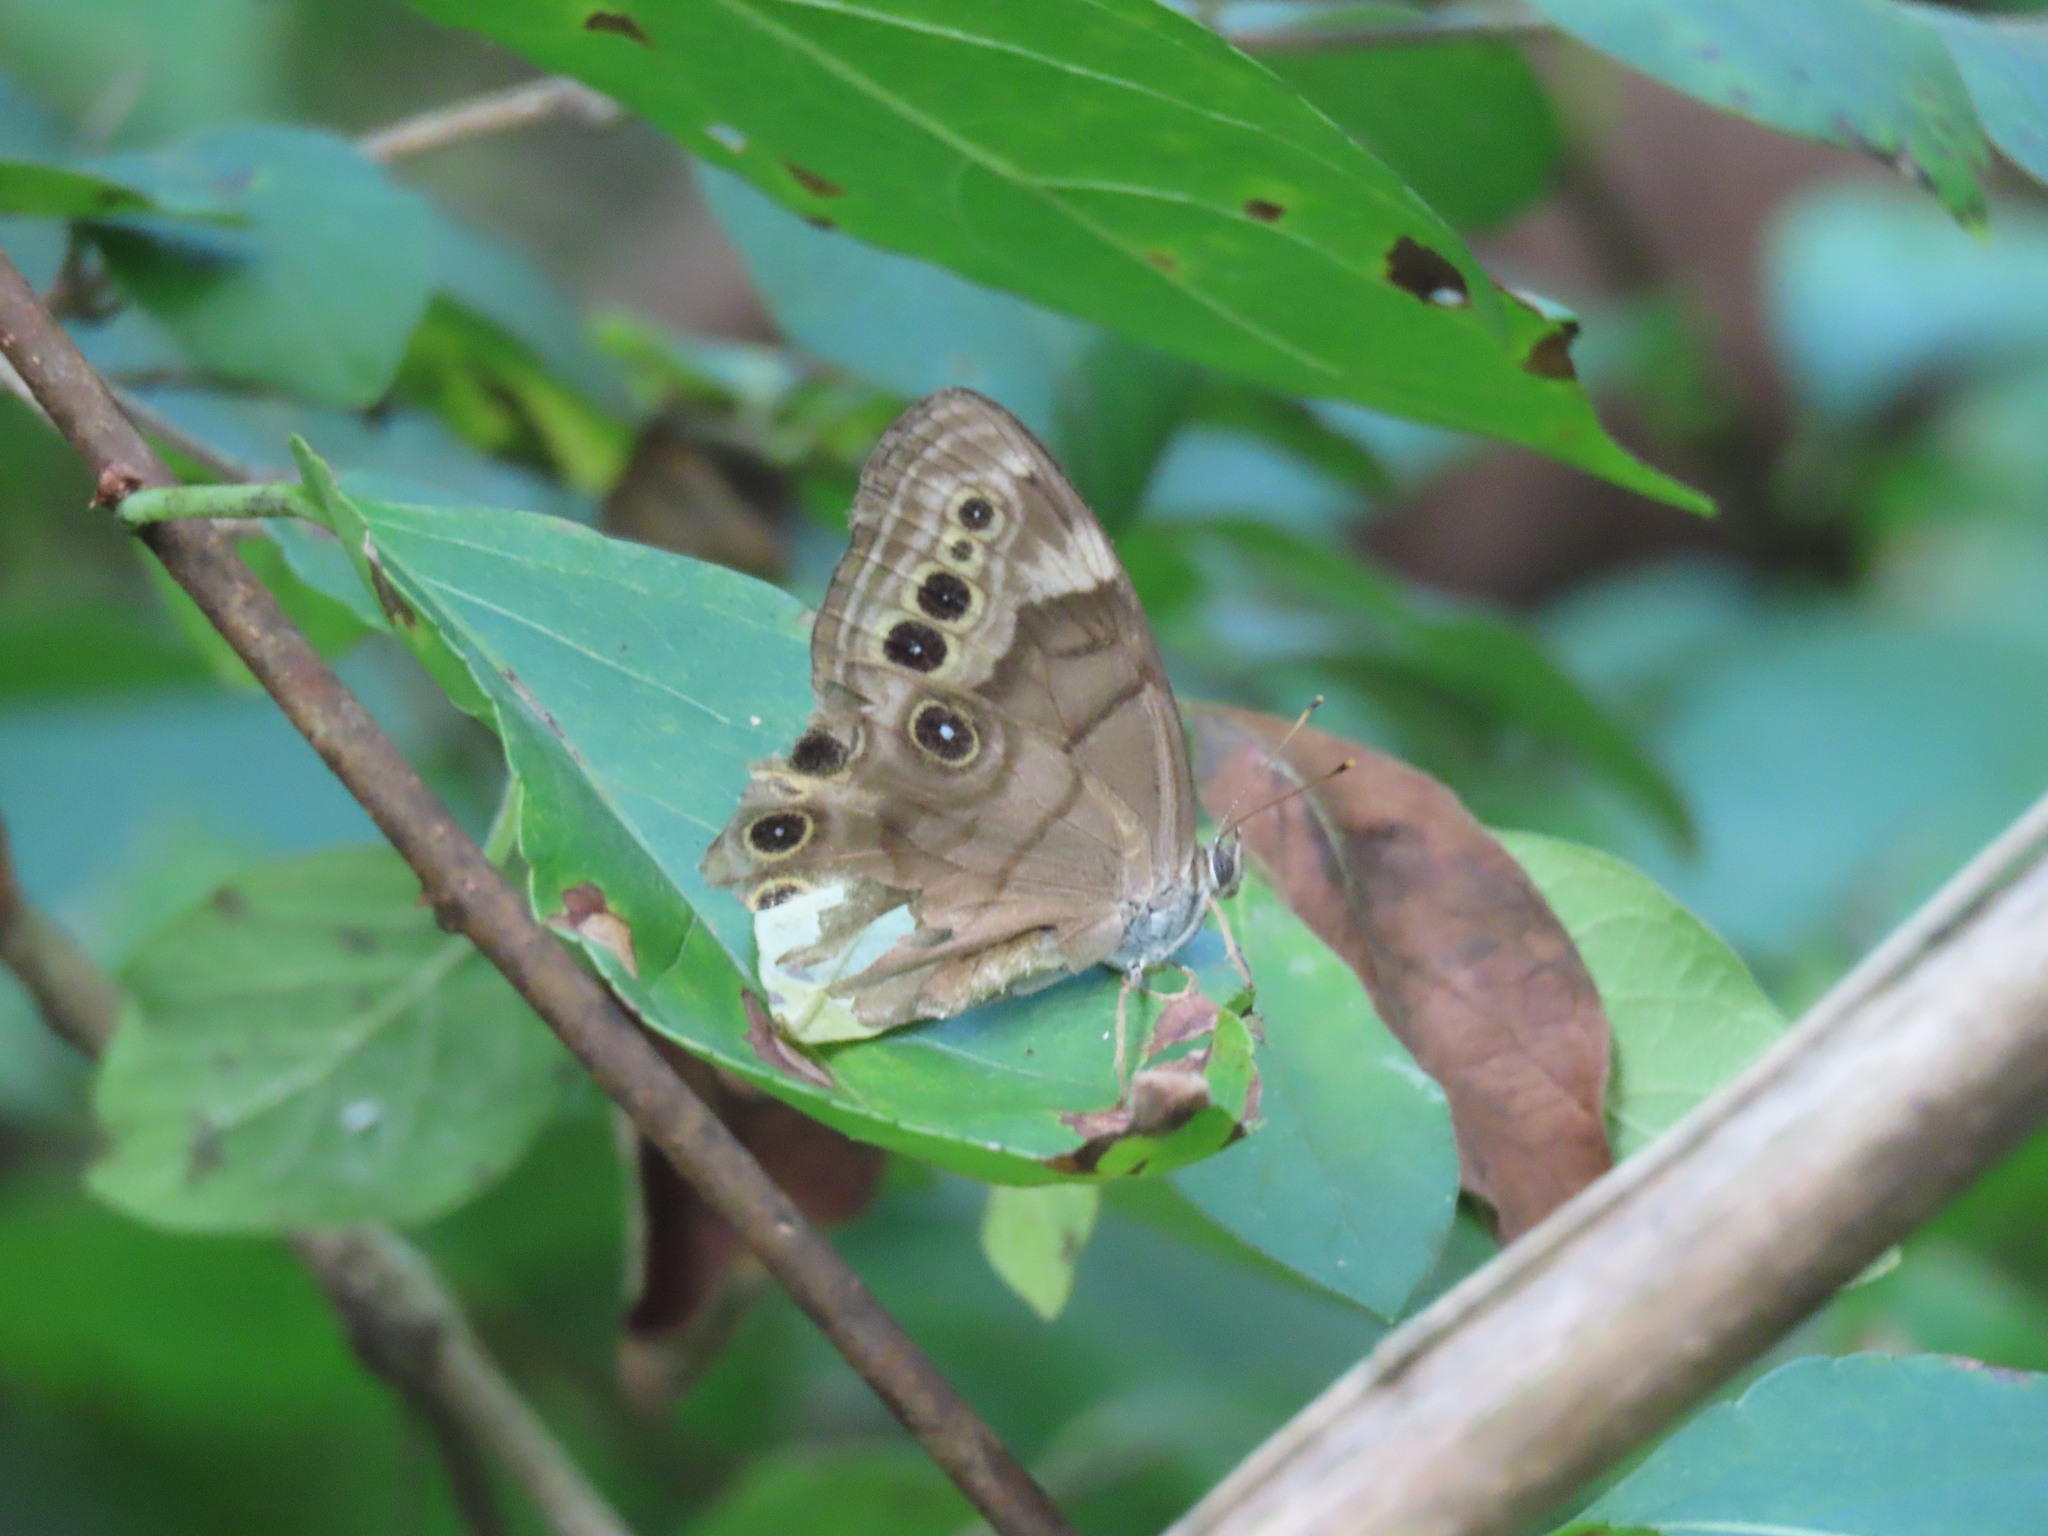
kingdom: Animalia
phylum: Arthropoda
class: Insecta
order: Lepidoptera
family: Nymphalidae
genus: Lethe
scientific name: Lethe anthedon
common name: Northern pearly-eye
